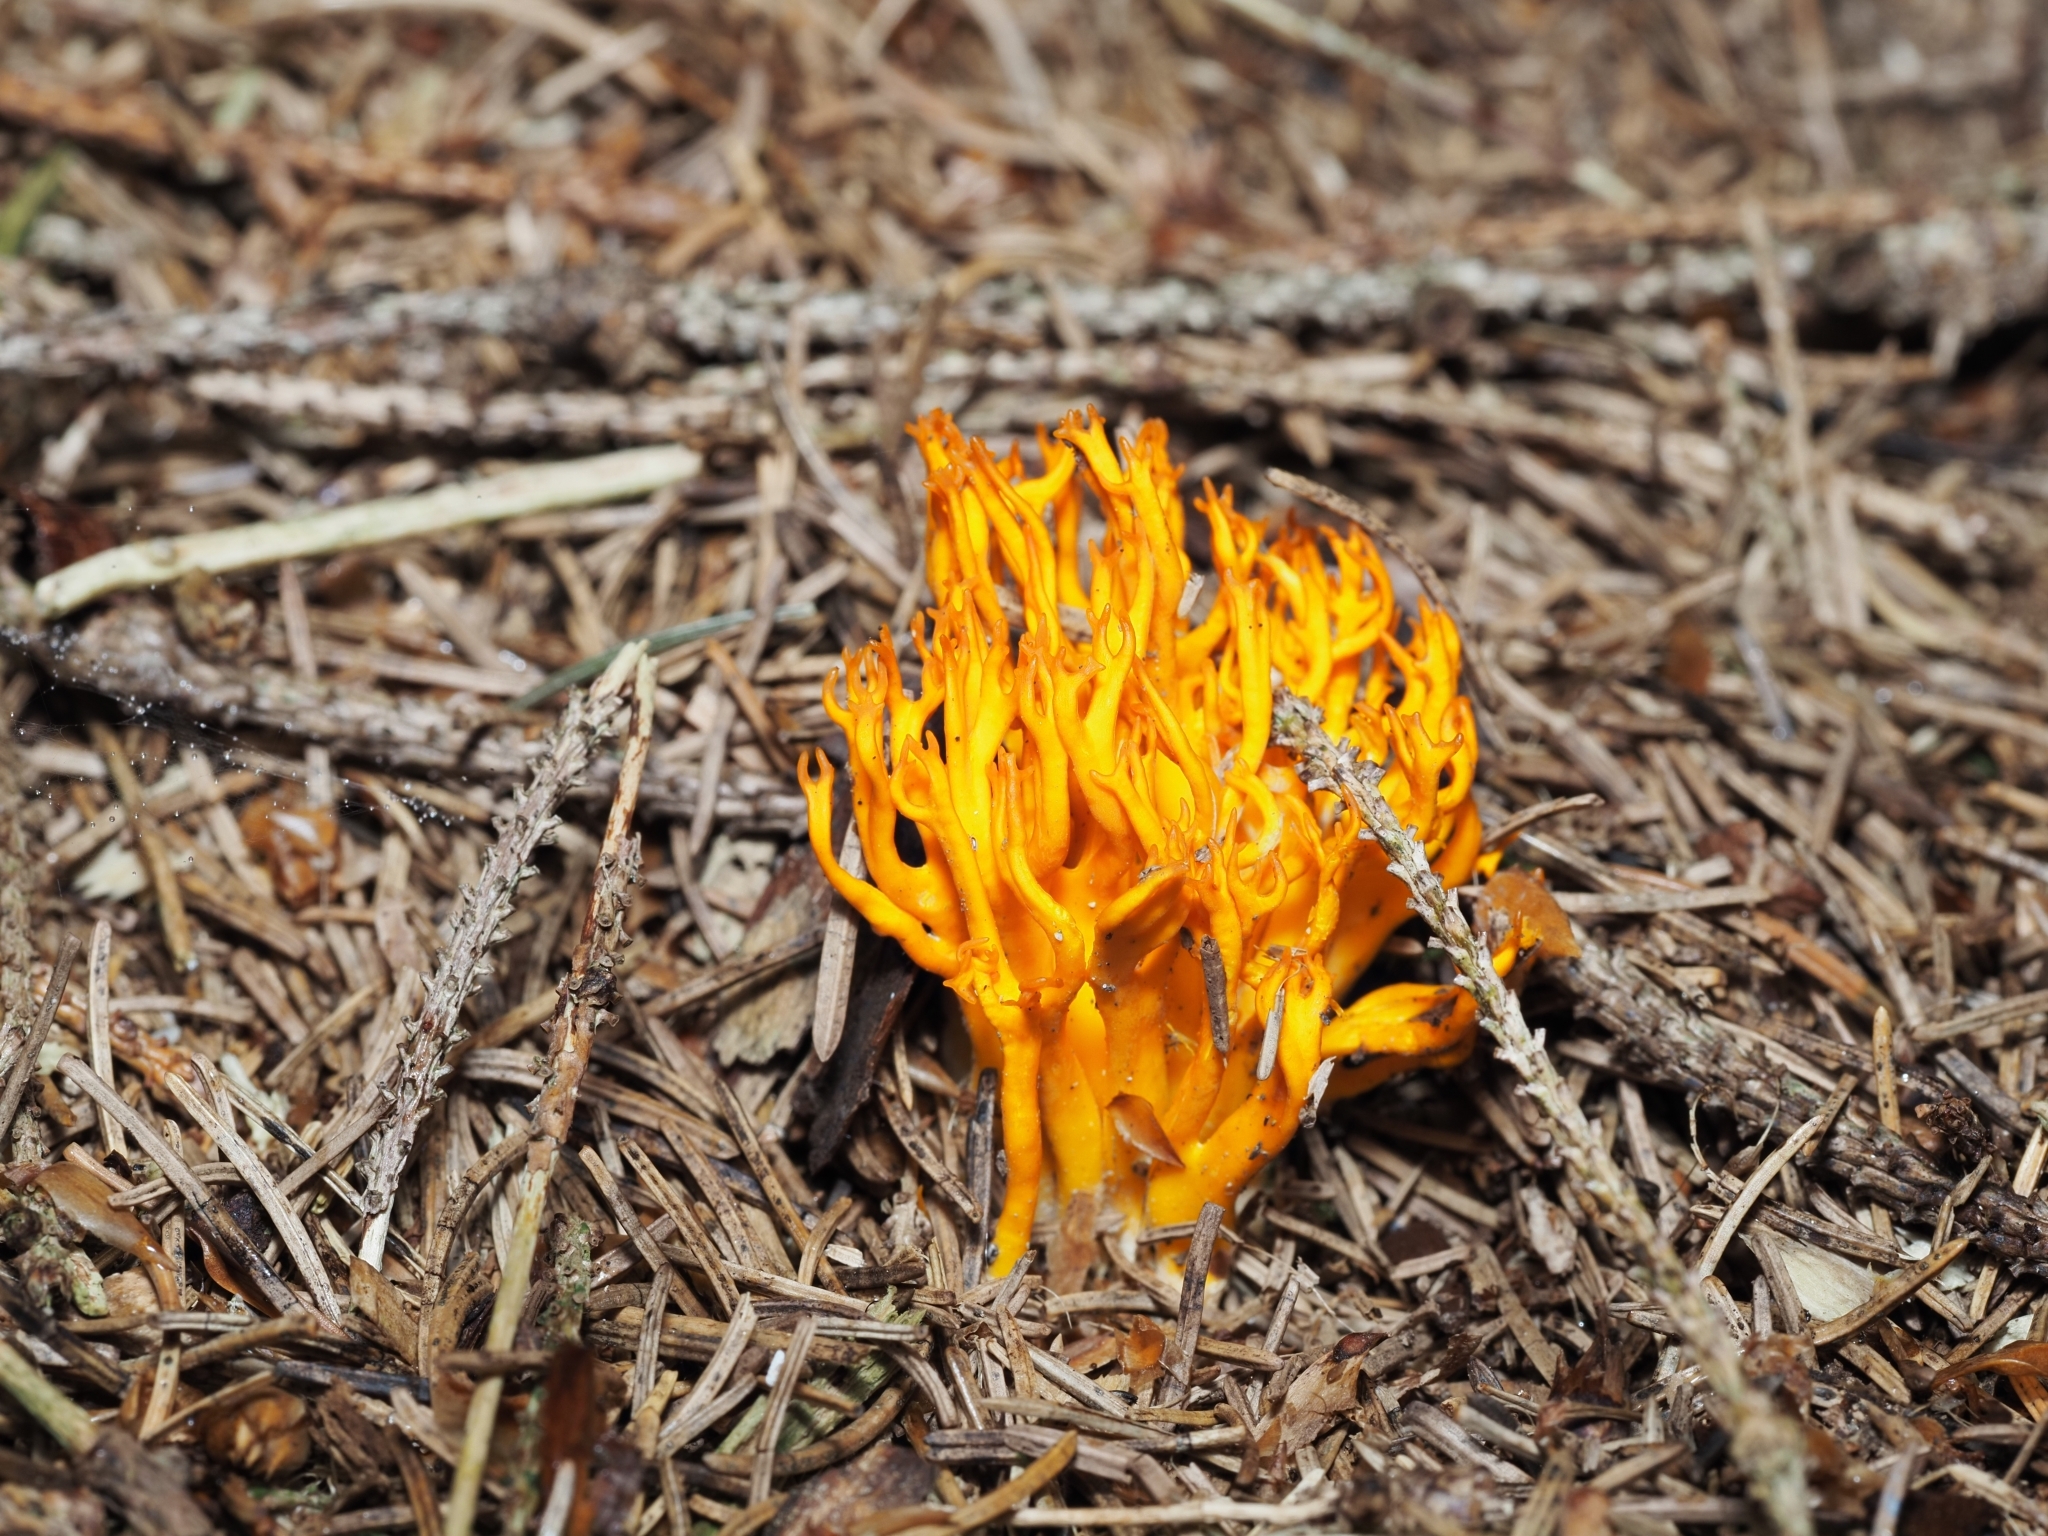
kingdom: Fungi
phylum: Basidiomycota
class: Dacrymycetes
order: Dacrymycetales
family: Dacrymycetaceae
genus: Calocera
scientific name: Calocera viscosa
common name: Yellow stagshorn
